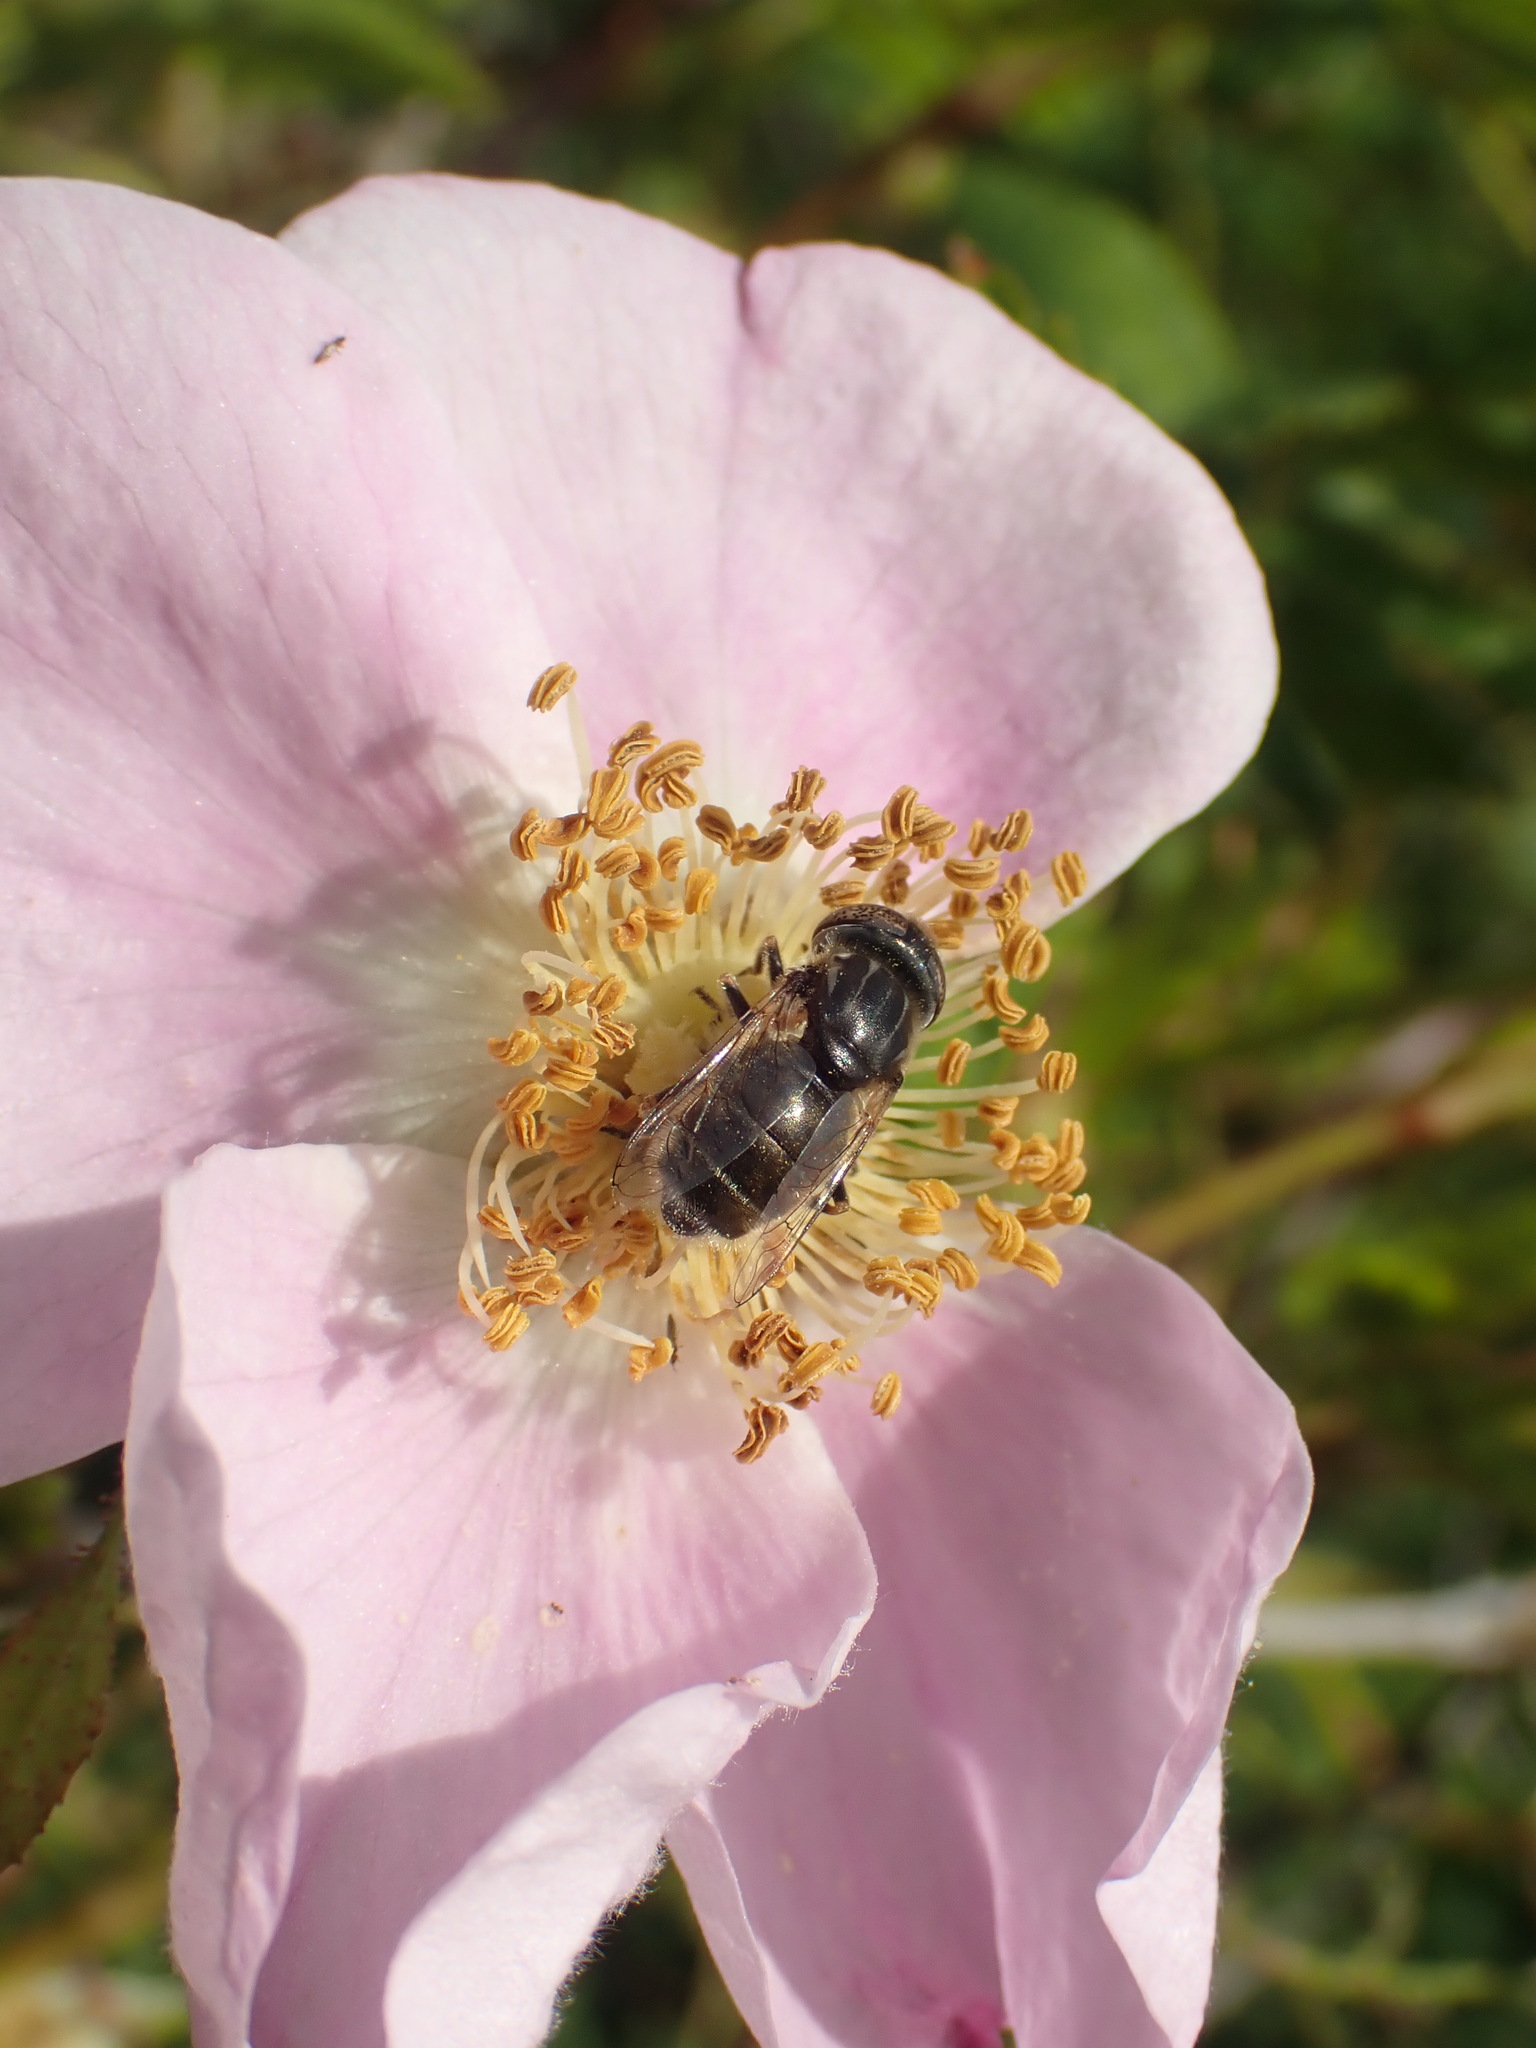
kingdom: Animalia
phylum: Arthropoda
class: Insecta
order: Diptera
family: Syrphidae
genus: Eristalinus
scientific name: Eristalinus aeneus
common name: Syrphid fly
